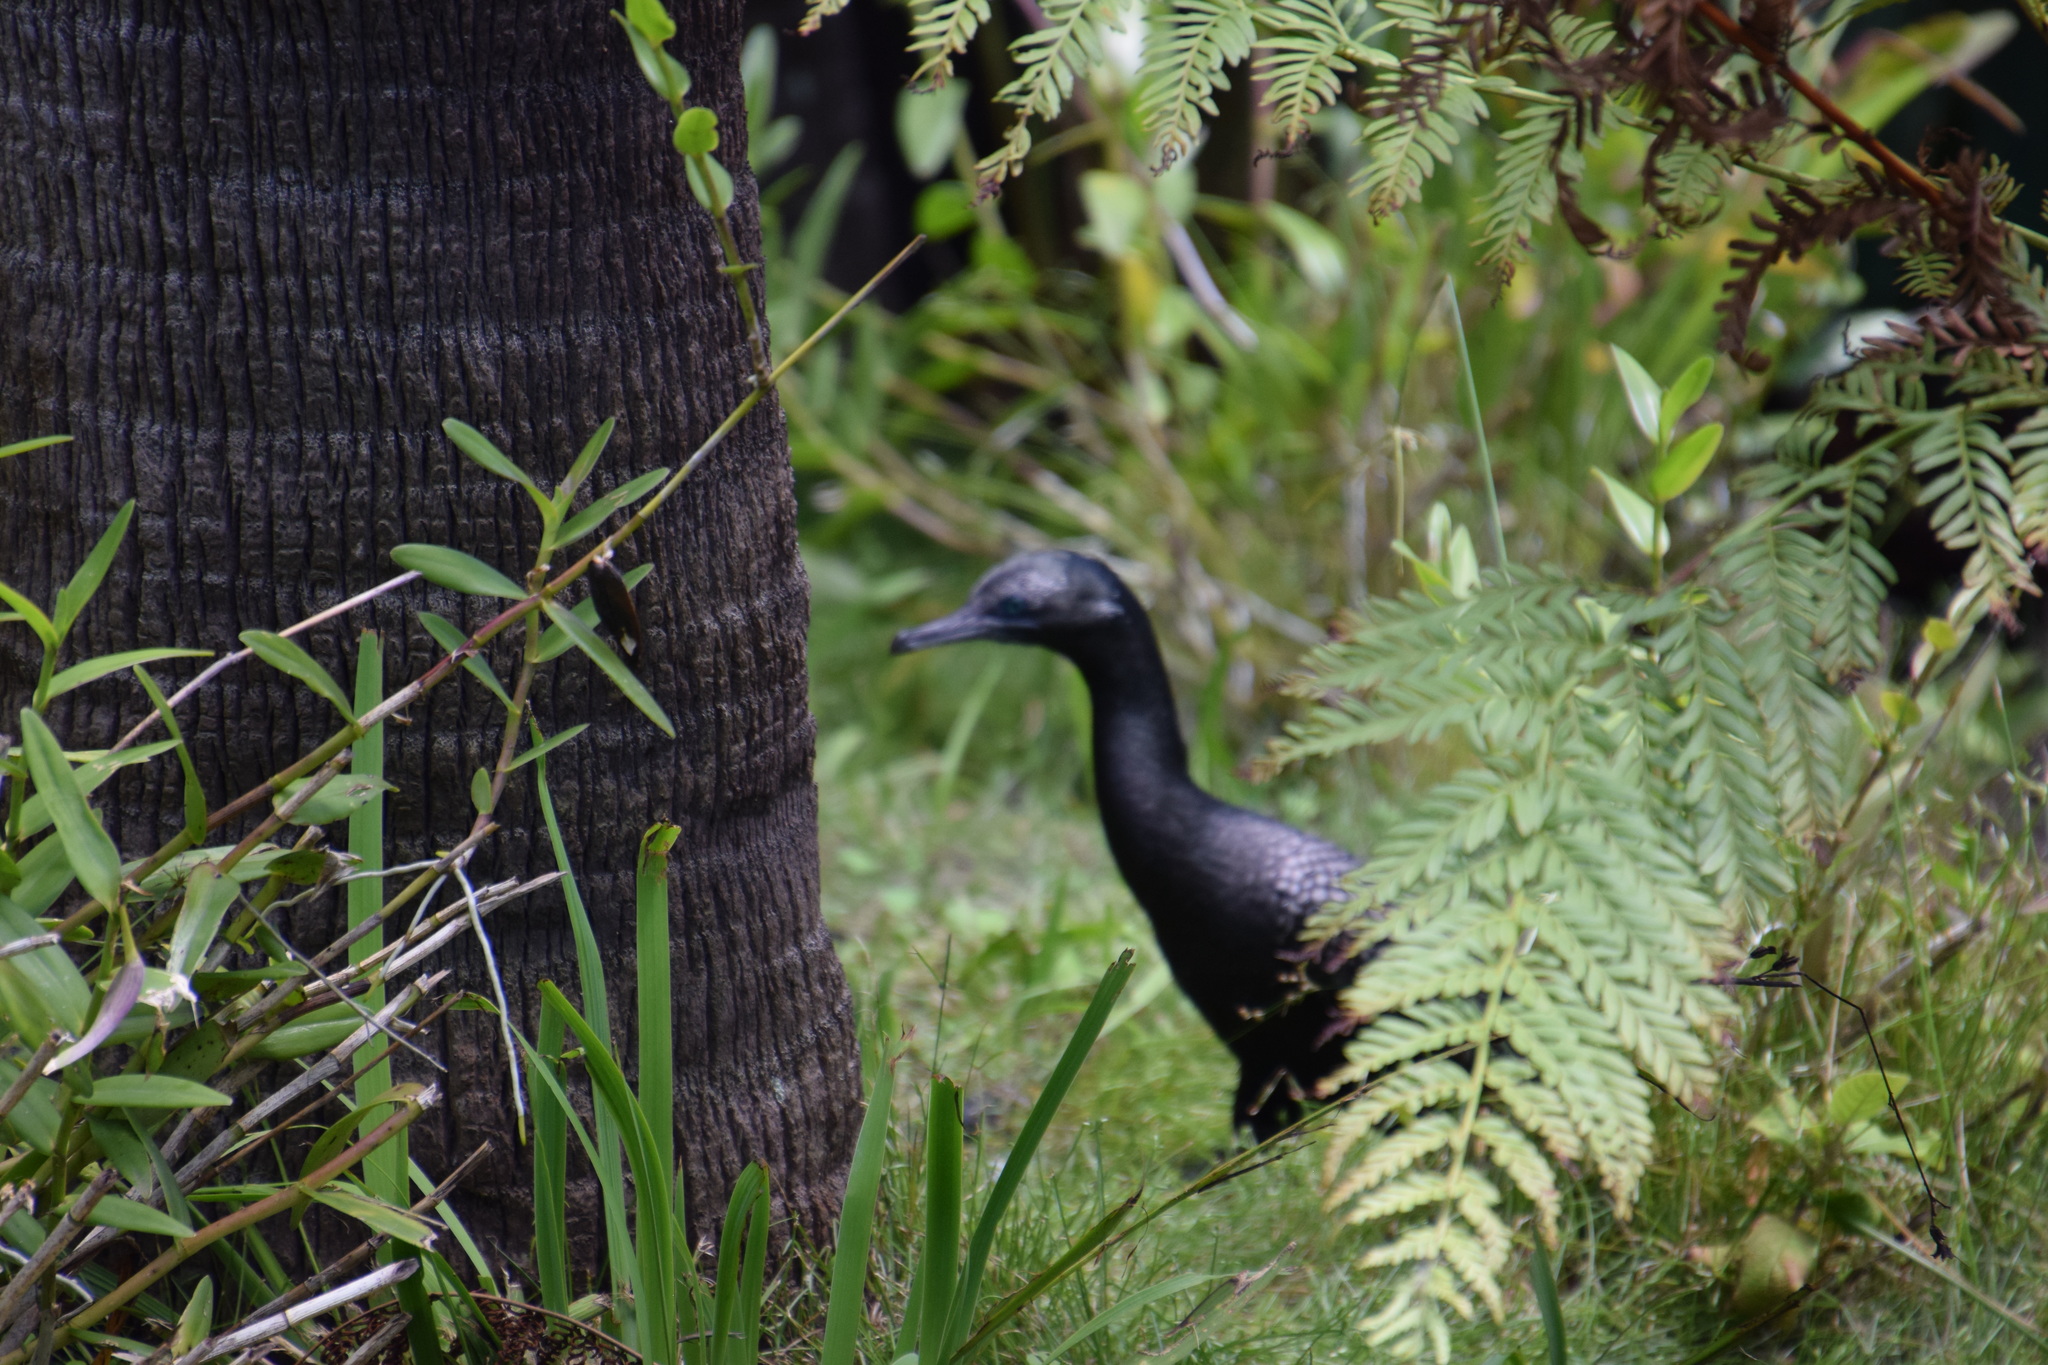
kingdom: Animalia
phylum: Chordata
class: Aves
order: Suliformes
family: Phalacrocoracidae
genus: Phalacrocorax
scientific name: Phalacrocorax sulcirostris
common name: Little black cormorant
